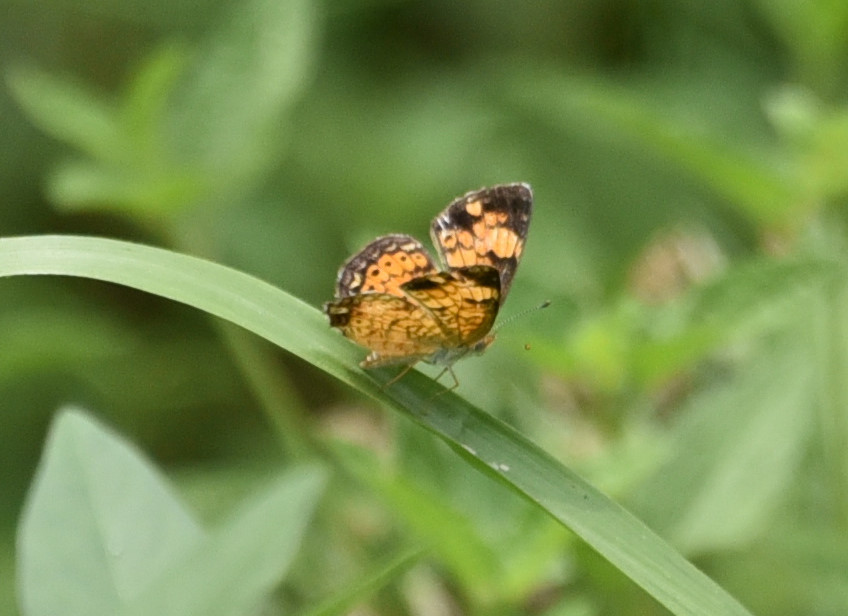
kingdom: Animalia
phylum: Arthropoda
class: Insecta
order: Lepidoptera
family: Nymphalidae
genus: Phyciodes
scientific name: Phyciodes tharos
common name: Pearl crescent
